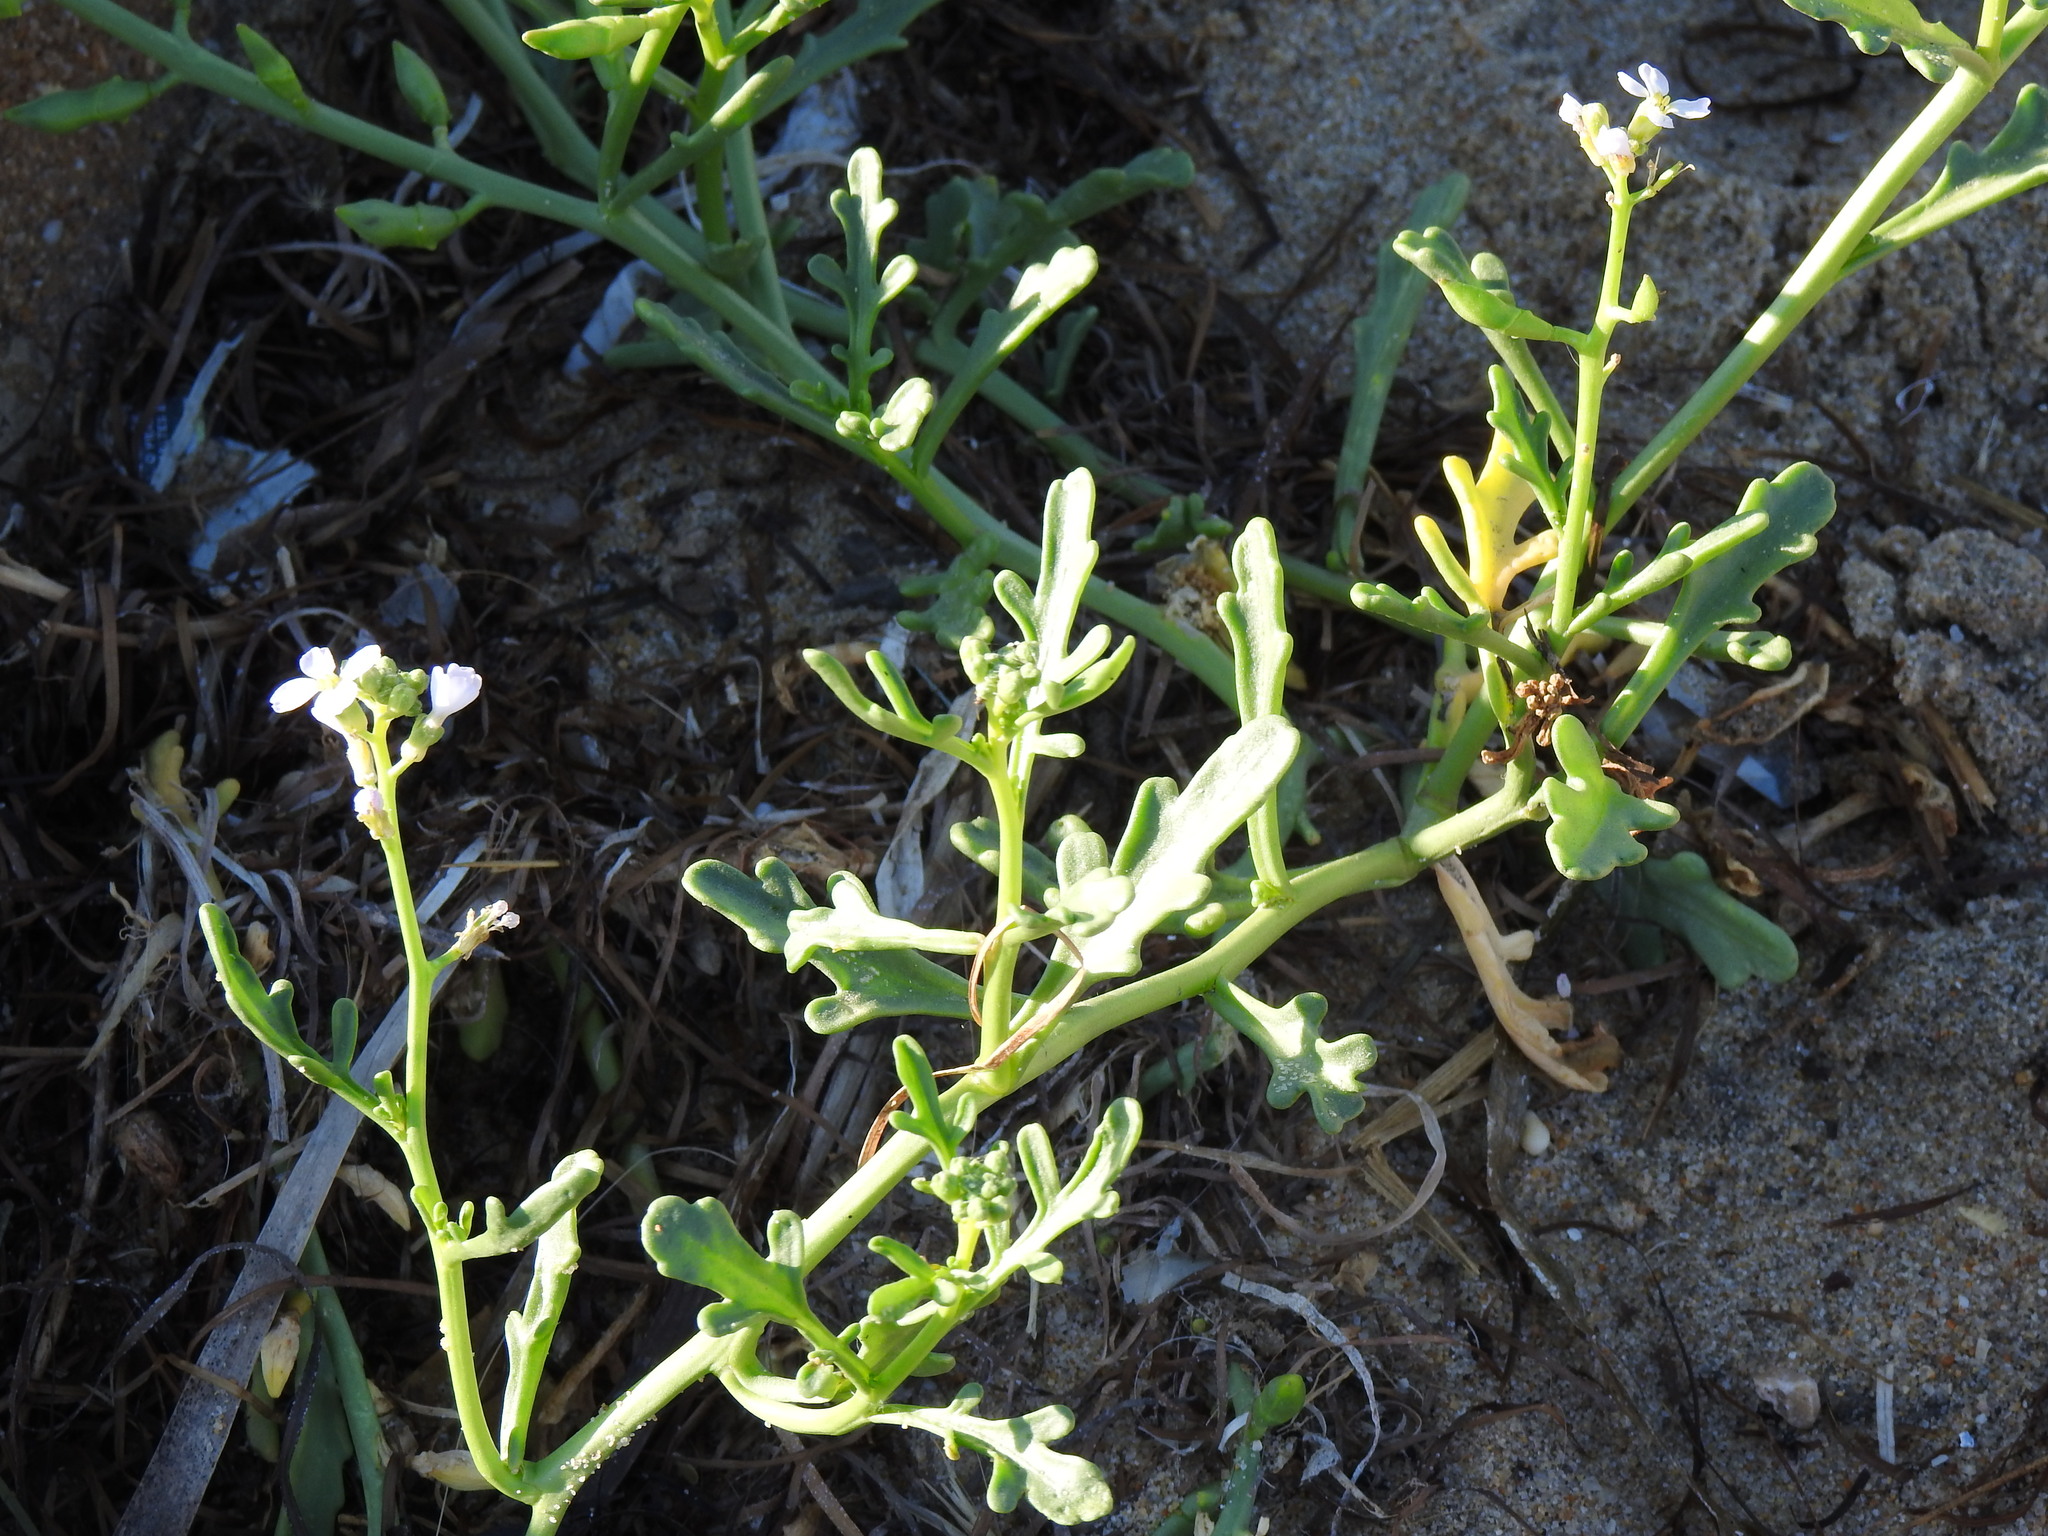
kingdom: Plantae
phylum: Tracheophyta
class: Magnoliopsida
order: Brassicales
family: Brassicaceae
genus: Cakile
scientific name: Cakile maritima
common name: Sea rocket
